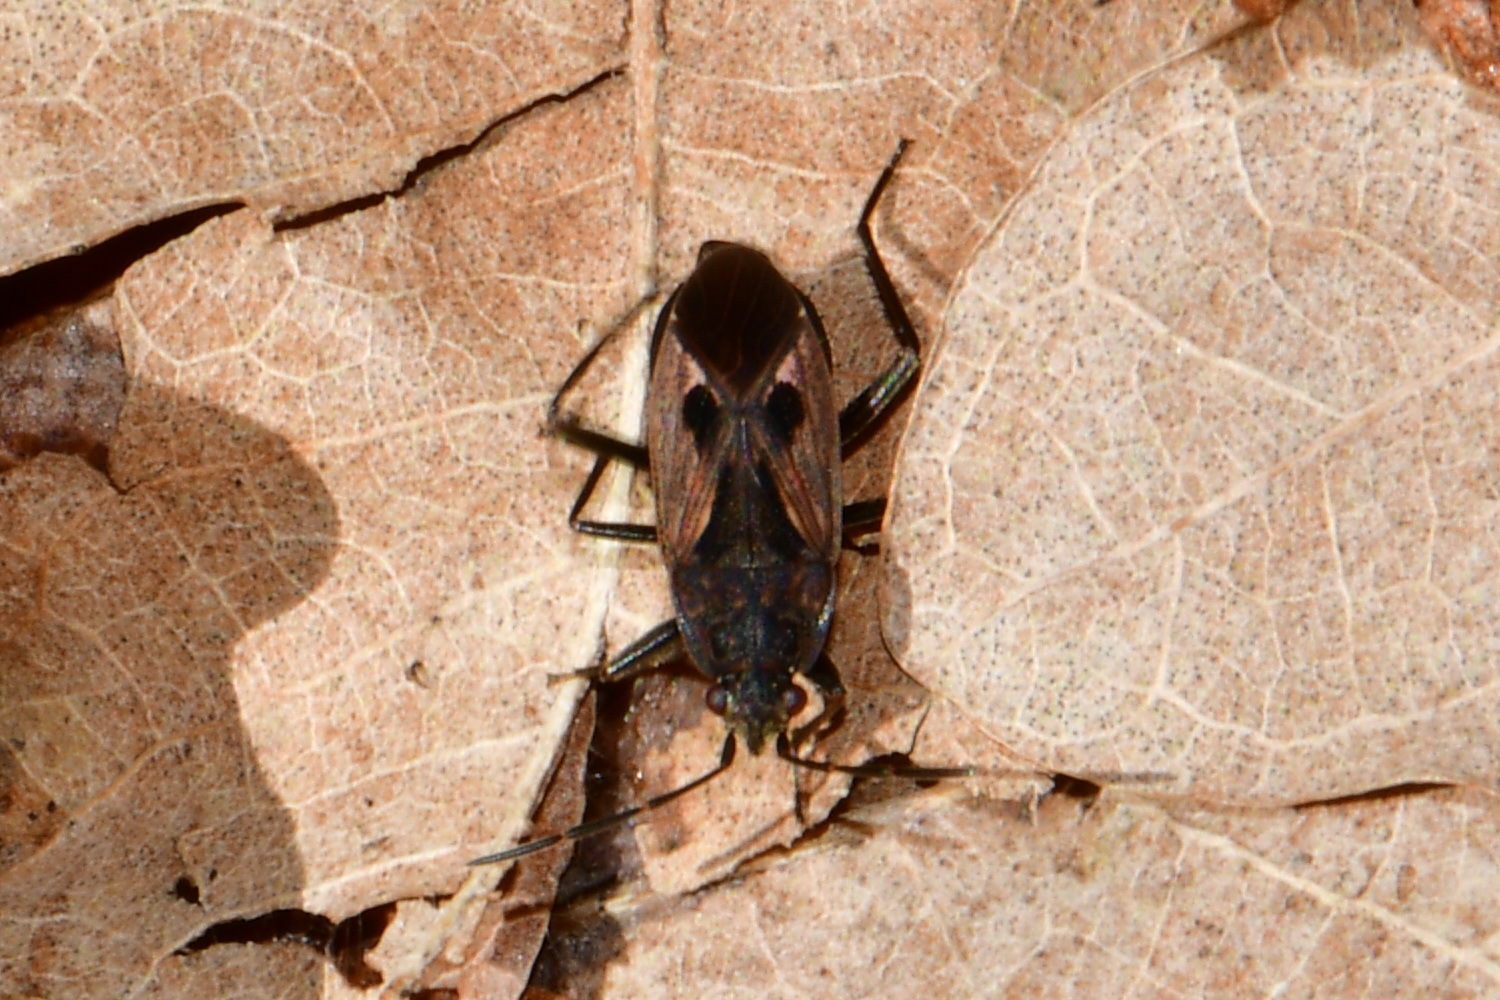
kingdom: Animalia
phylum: Arthropoda
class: Insecta
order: Hemiptera
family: Rhyparochromidae
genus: Rhyparochromus
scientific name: Rhyparochromus pini
